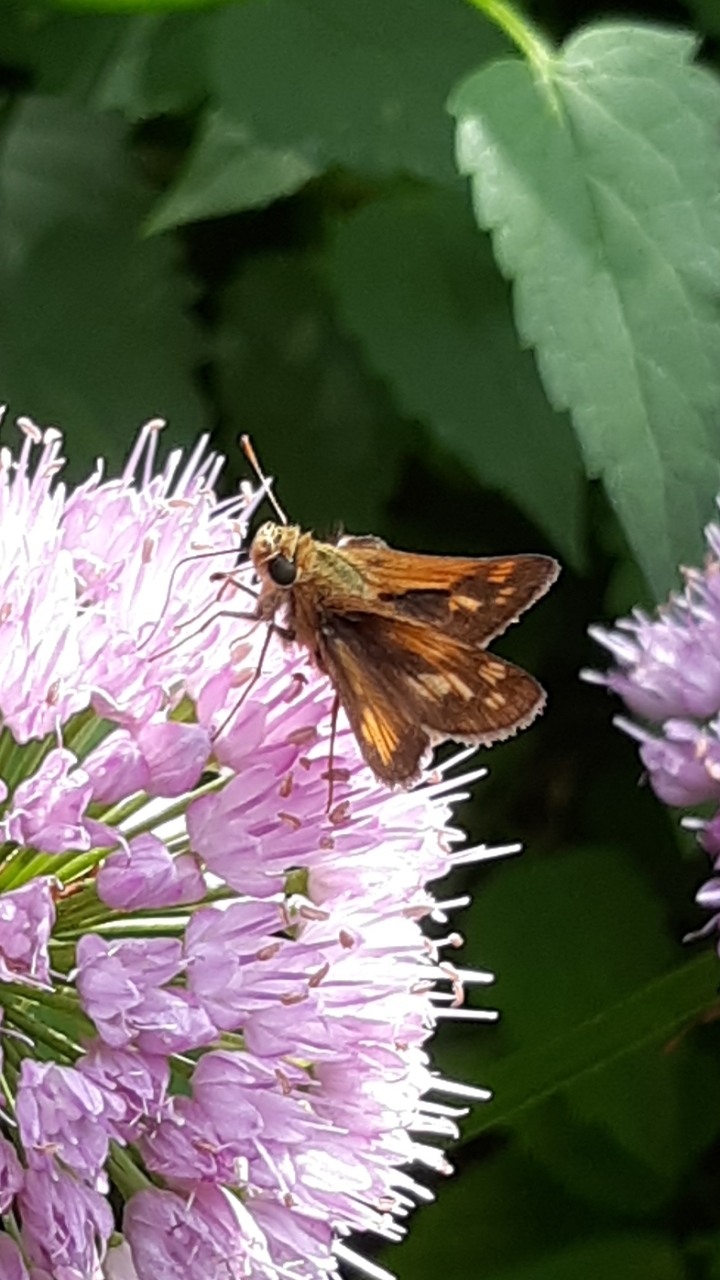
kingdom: Animalia
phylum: Arthropoda
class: Insecta
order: Lepidoptera
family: Hesperiidae
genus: Polites
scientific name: Polites coras
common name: Peck's skipper
